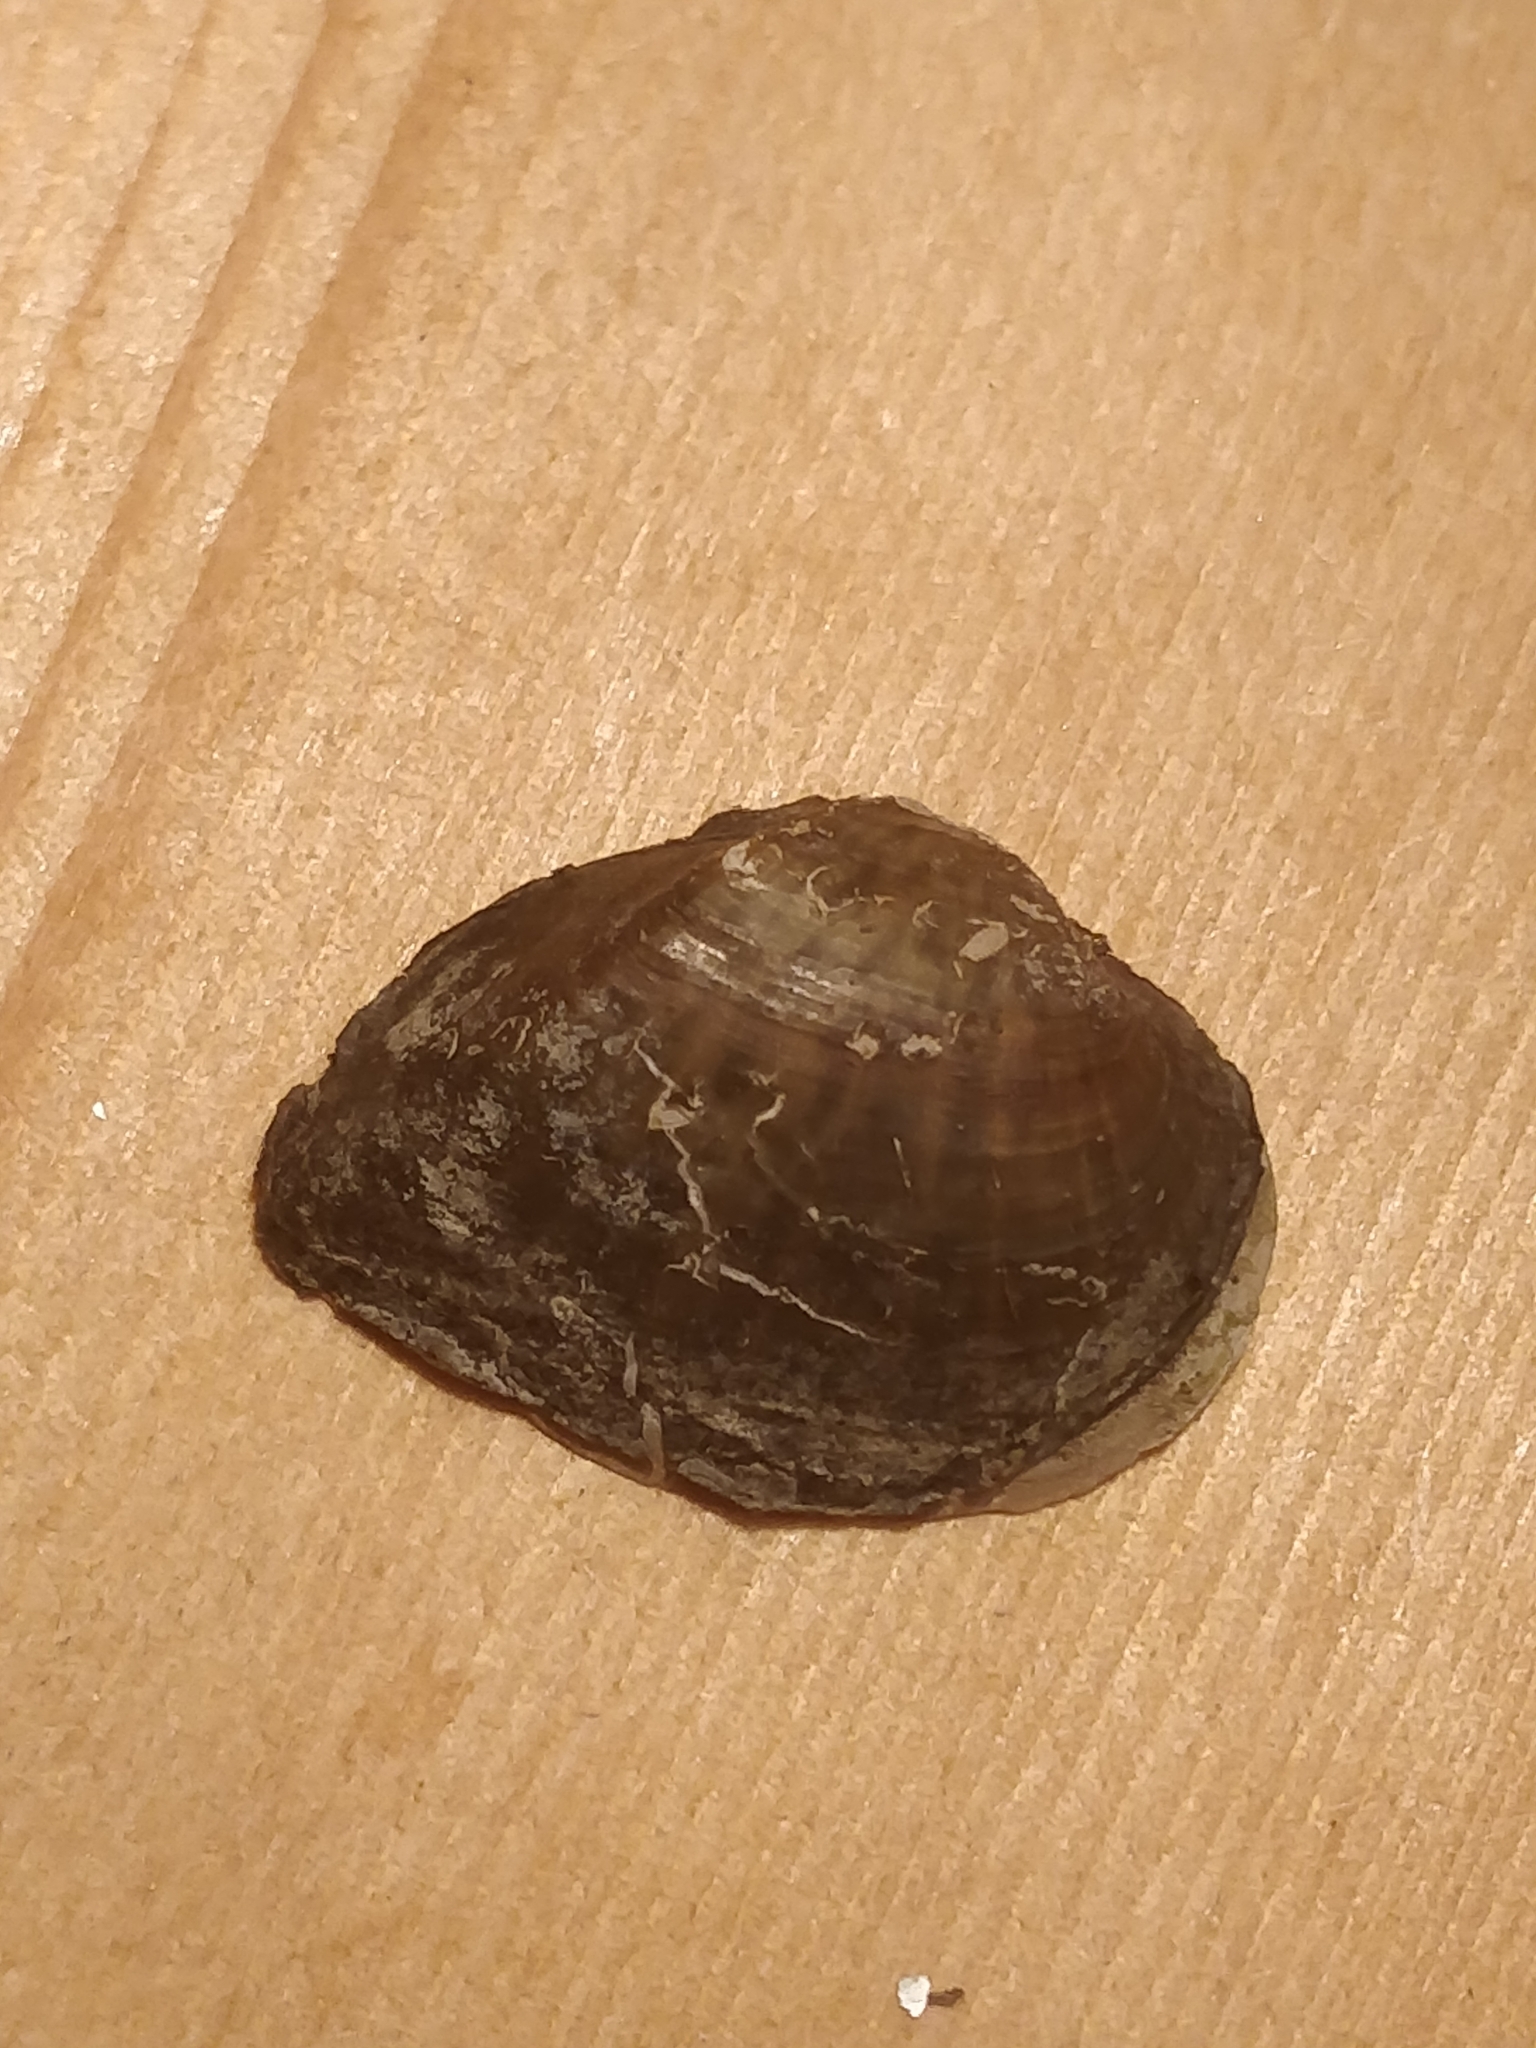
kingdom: Animalia
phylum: Mollusca
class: Bivalvia
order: Unionida
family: Unionidae
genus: Truncilla
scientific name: Truncilla truncata
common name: Deertoe
